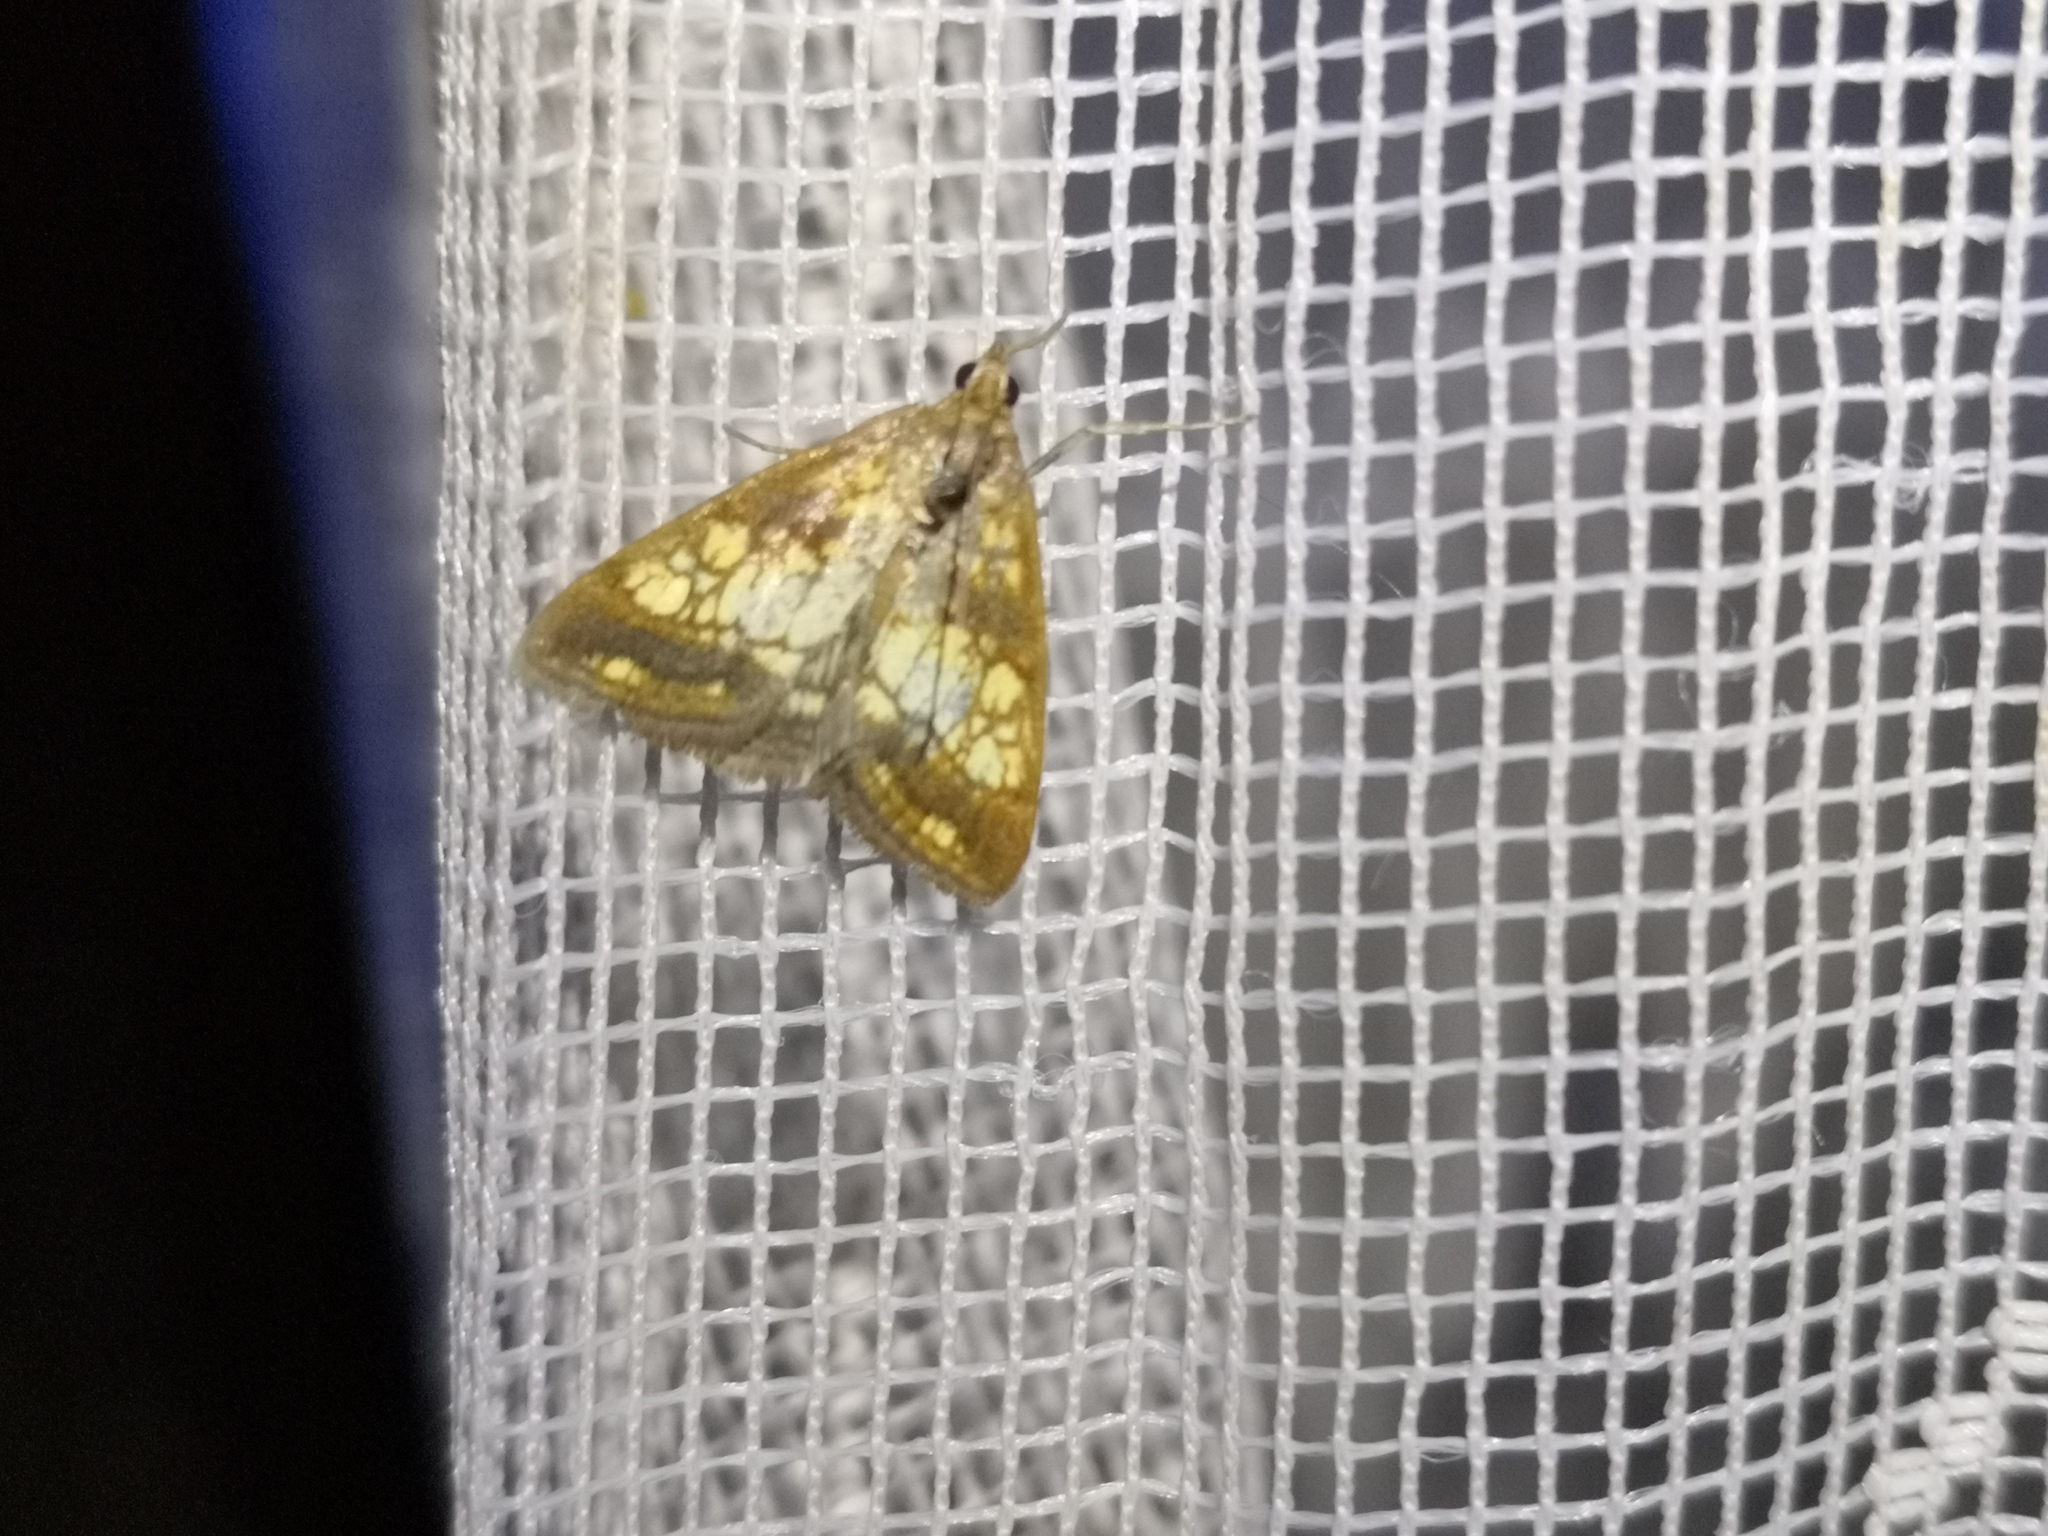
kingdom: Animalia
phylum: Arthropoda
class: Insecta
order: Lepidoptera
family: Crambidae
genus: Evergestis
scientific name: Evergestis politalis
